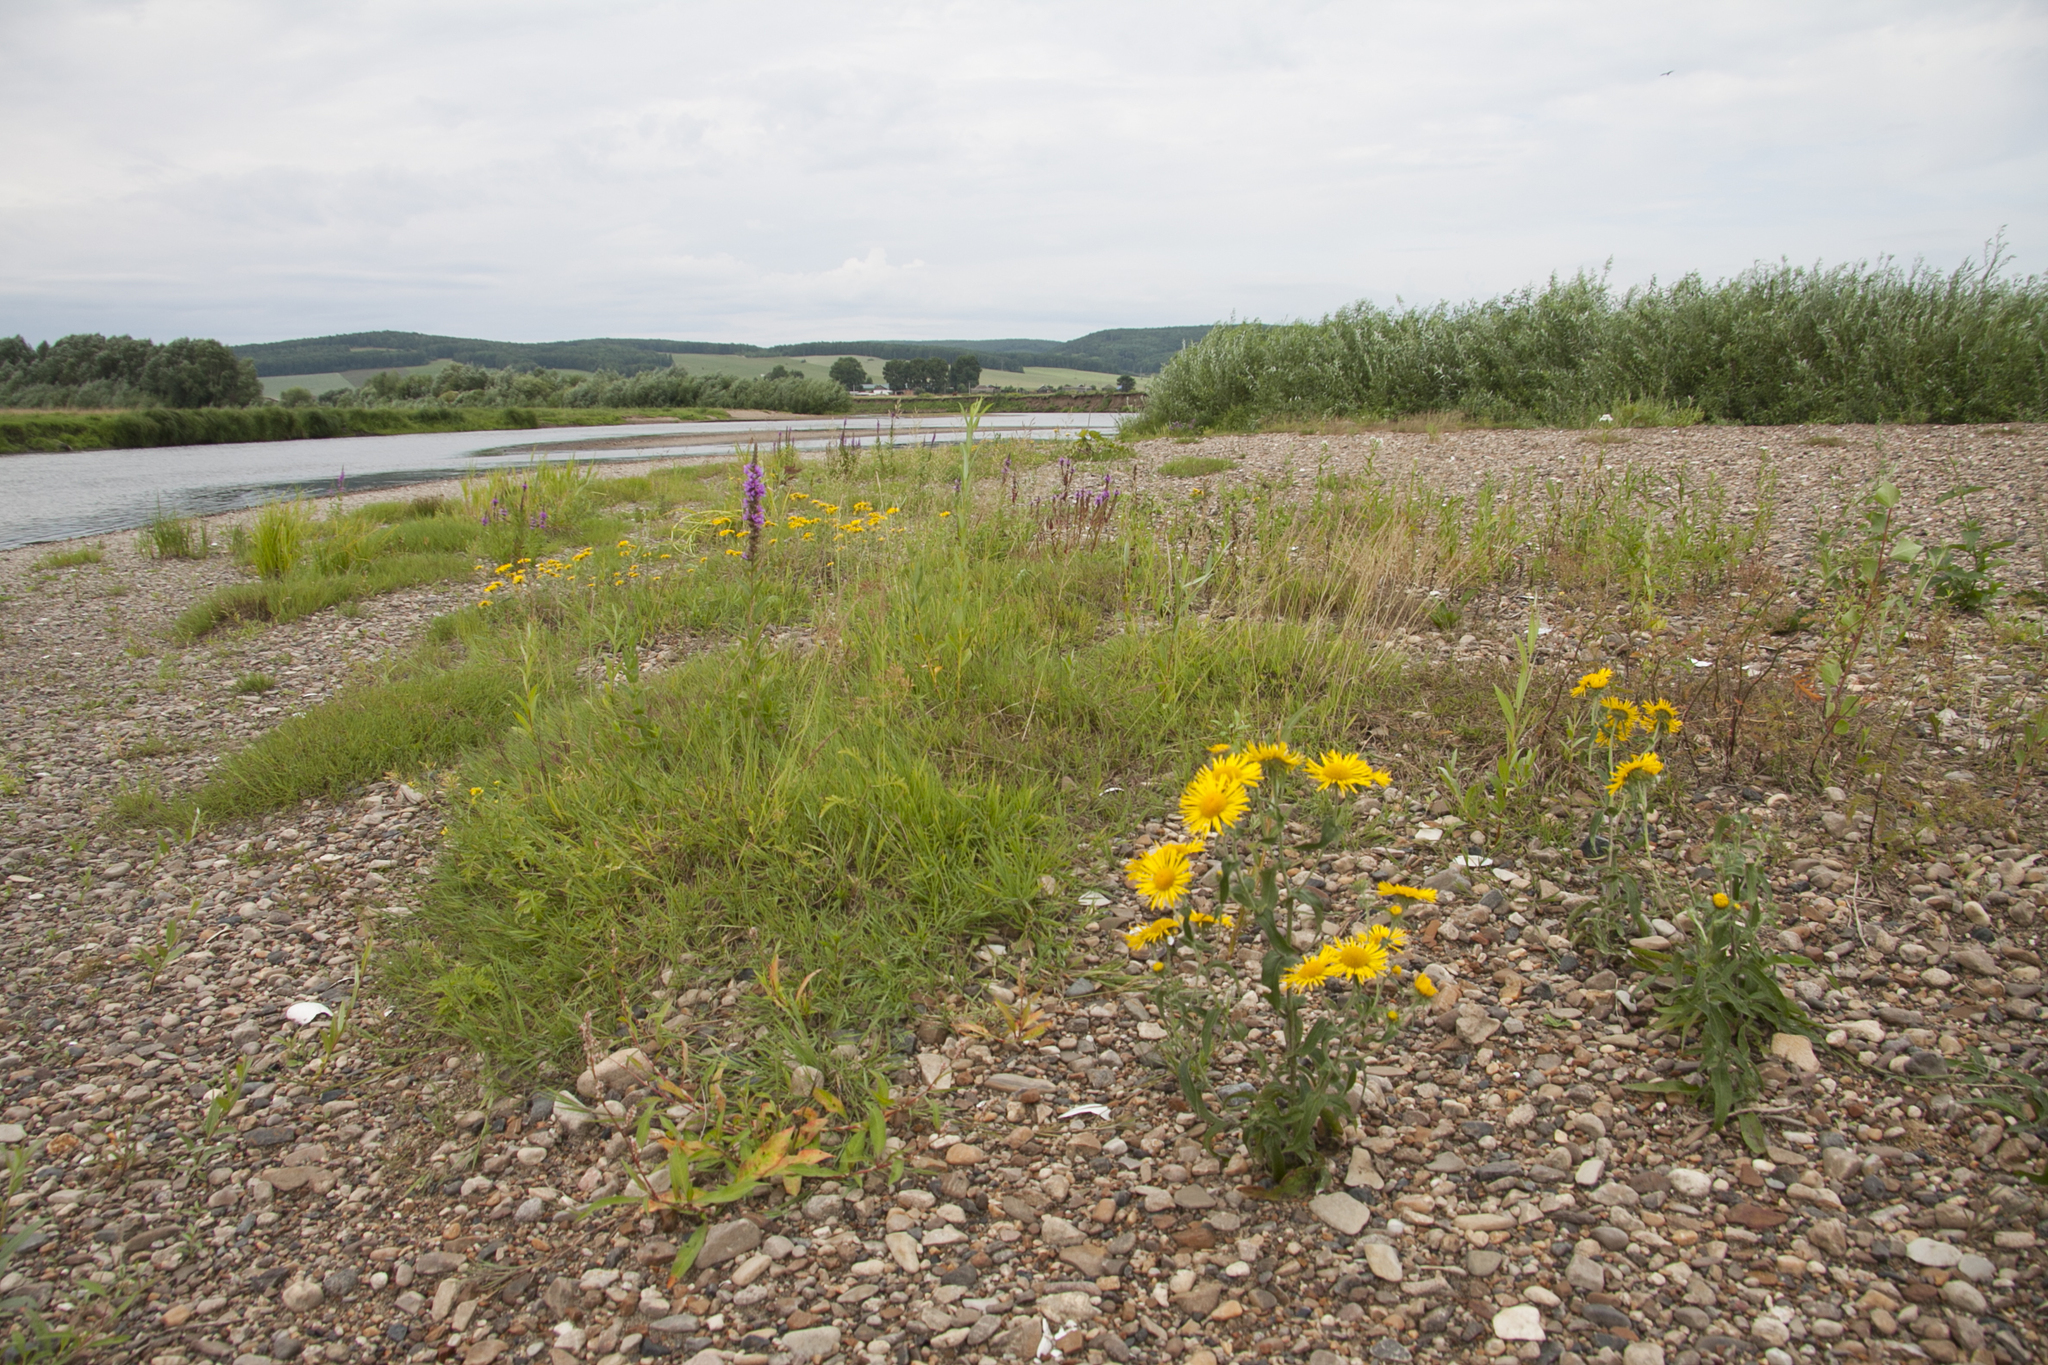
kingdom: Plantae
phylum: Tracheophyta
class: Magnoliopsida
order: Asterales
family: Asteraceae
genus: Pentanema
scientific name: Pentanema britannicum
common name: British elecampane
